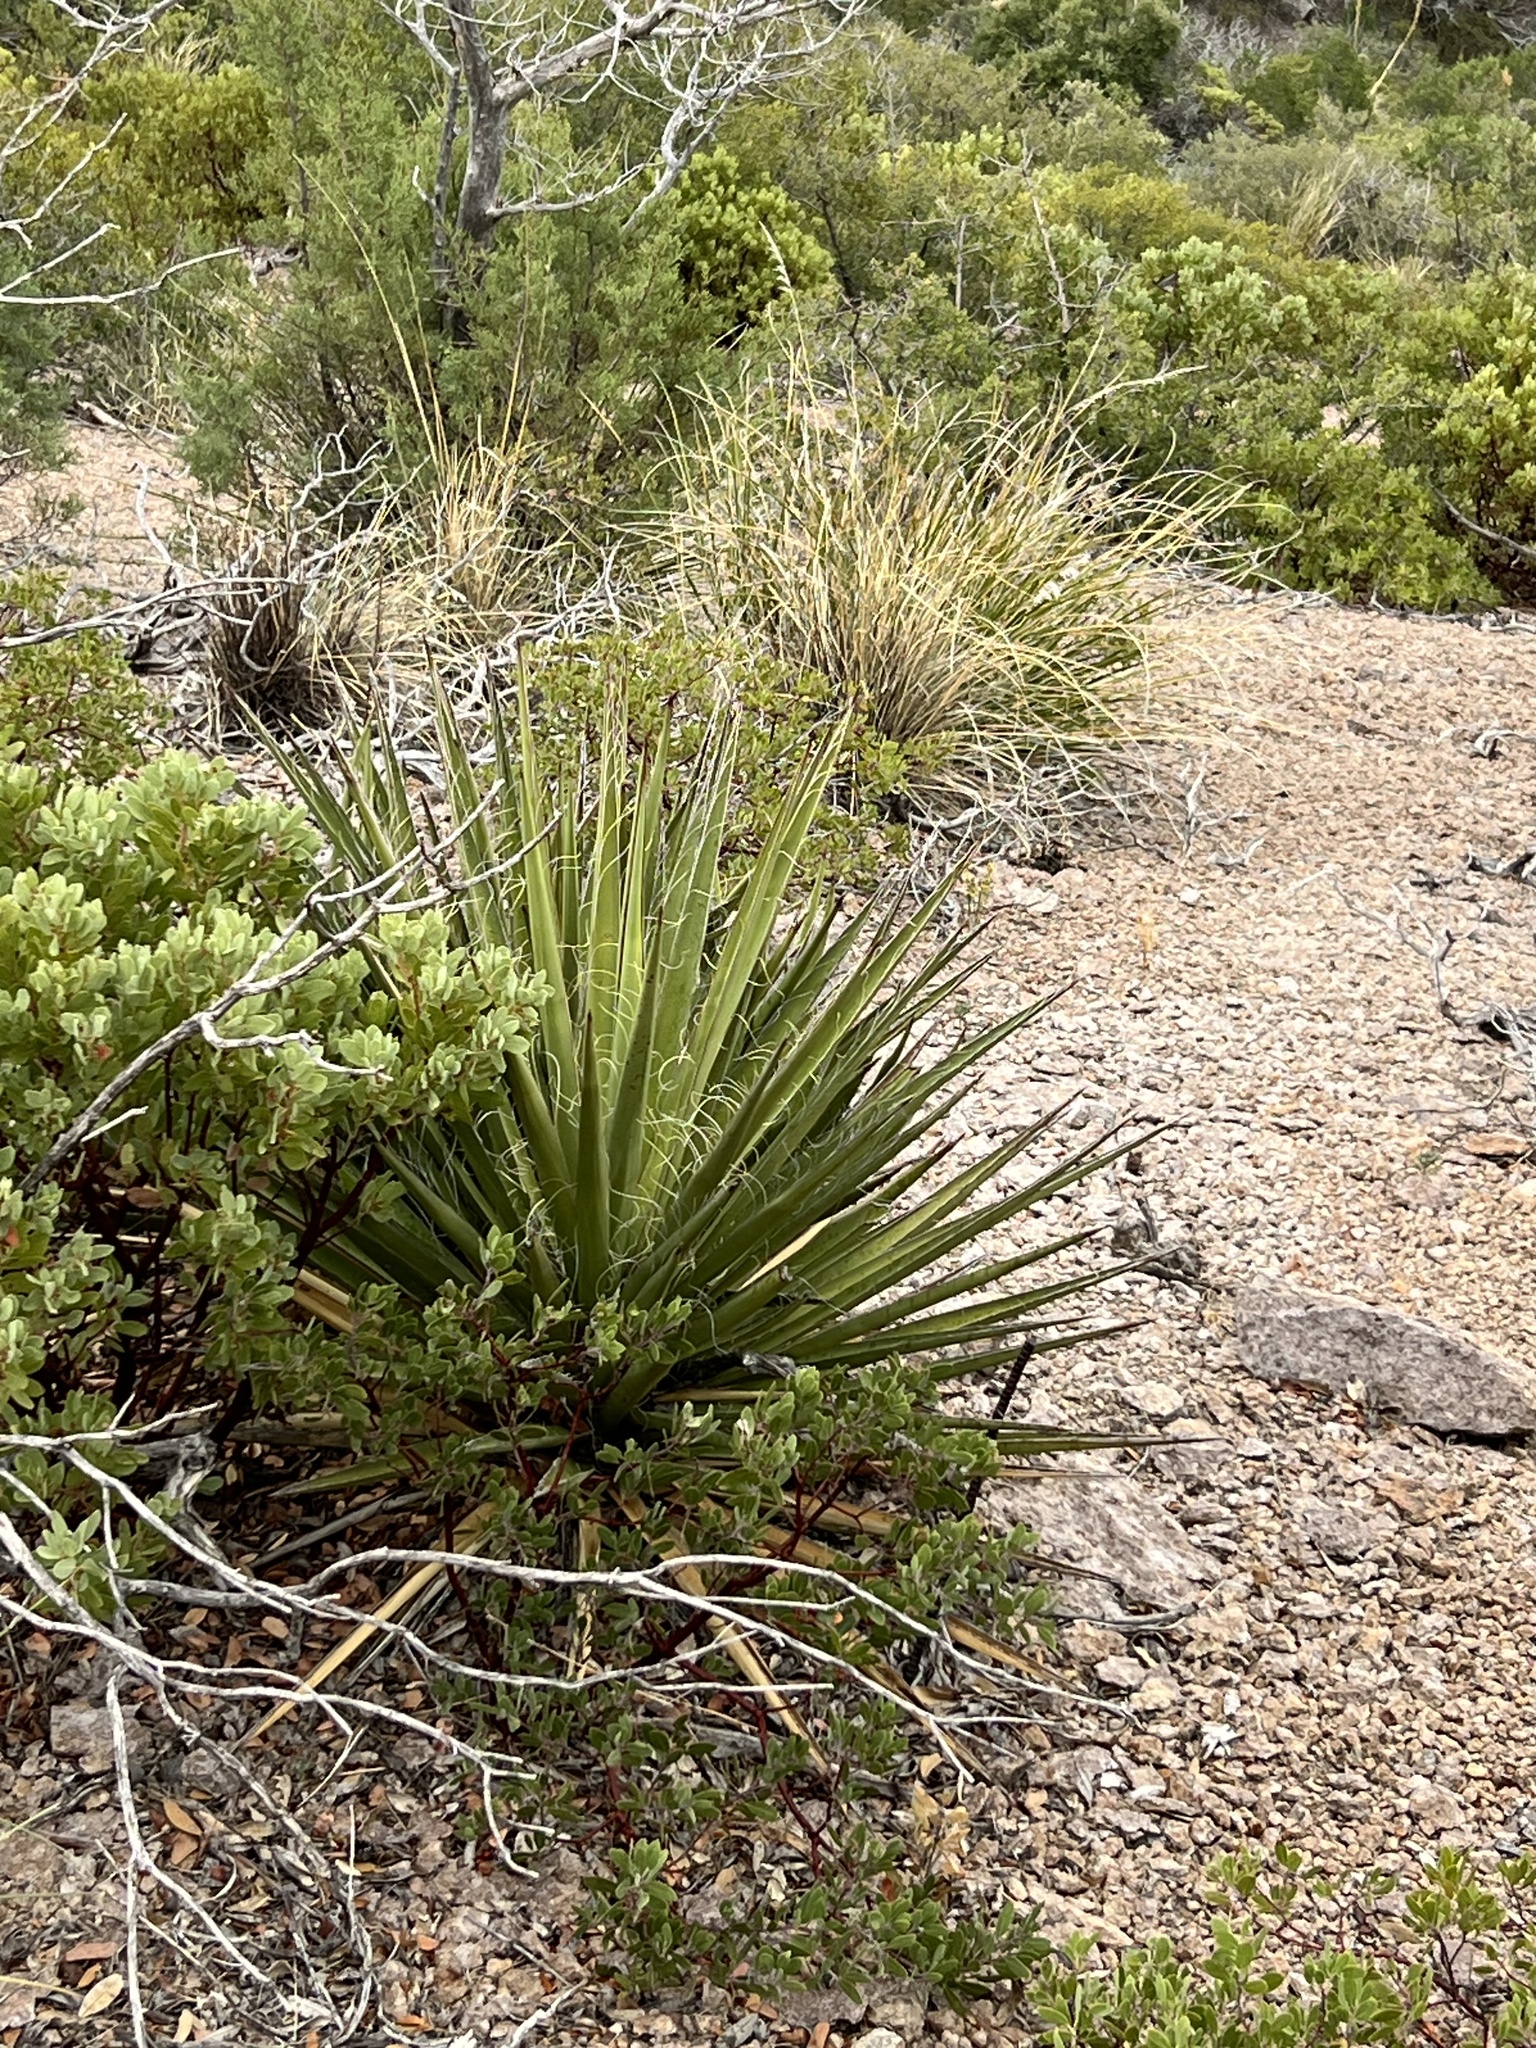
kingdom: Plantae
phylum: Tracheophyta
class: Liliopsida
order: Asparagales
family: Asparagaceae
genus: Yucca
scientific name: Yucca baccata
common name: Banana yucca
